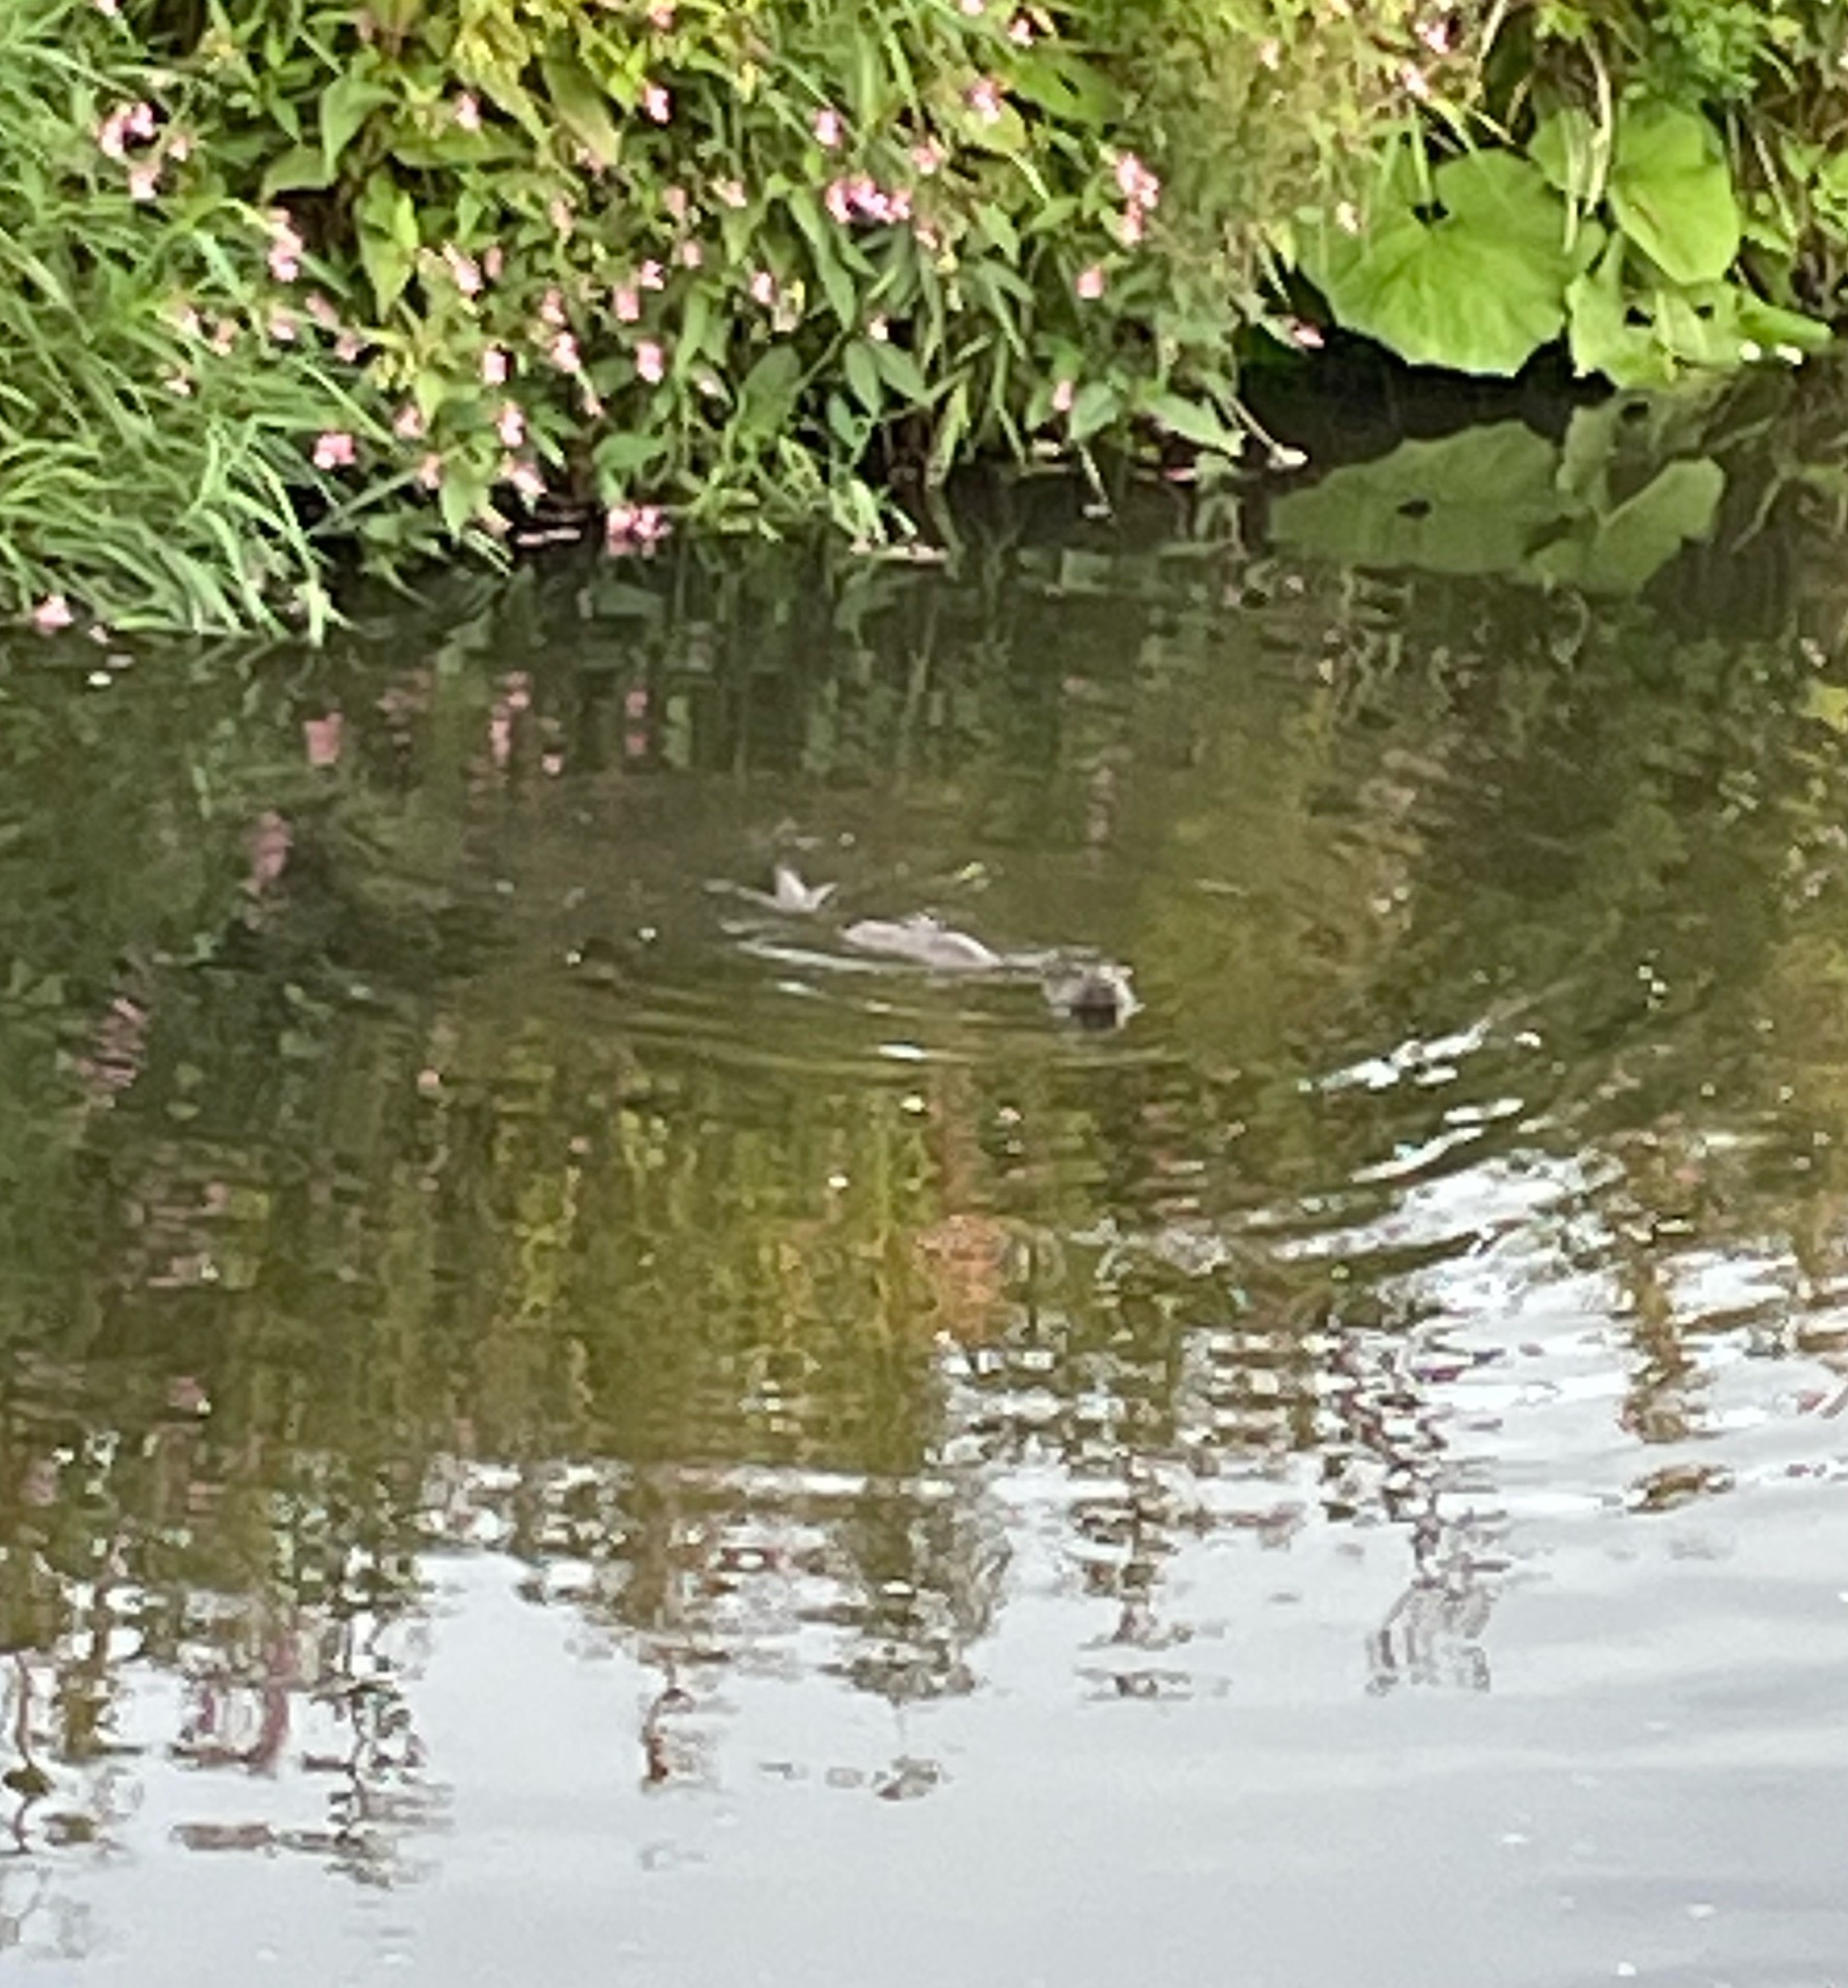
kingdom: Animalia
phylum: Chordata
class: Mammalia
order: Carnivora
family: Mustelidae
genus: Lutra
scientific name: Lutra lutra
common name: European otter
